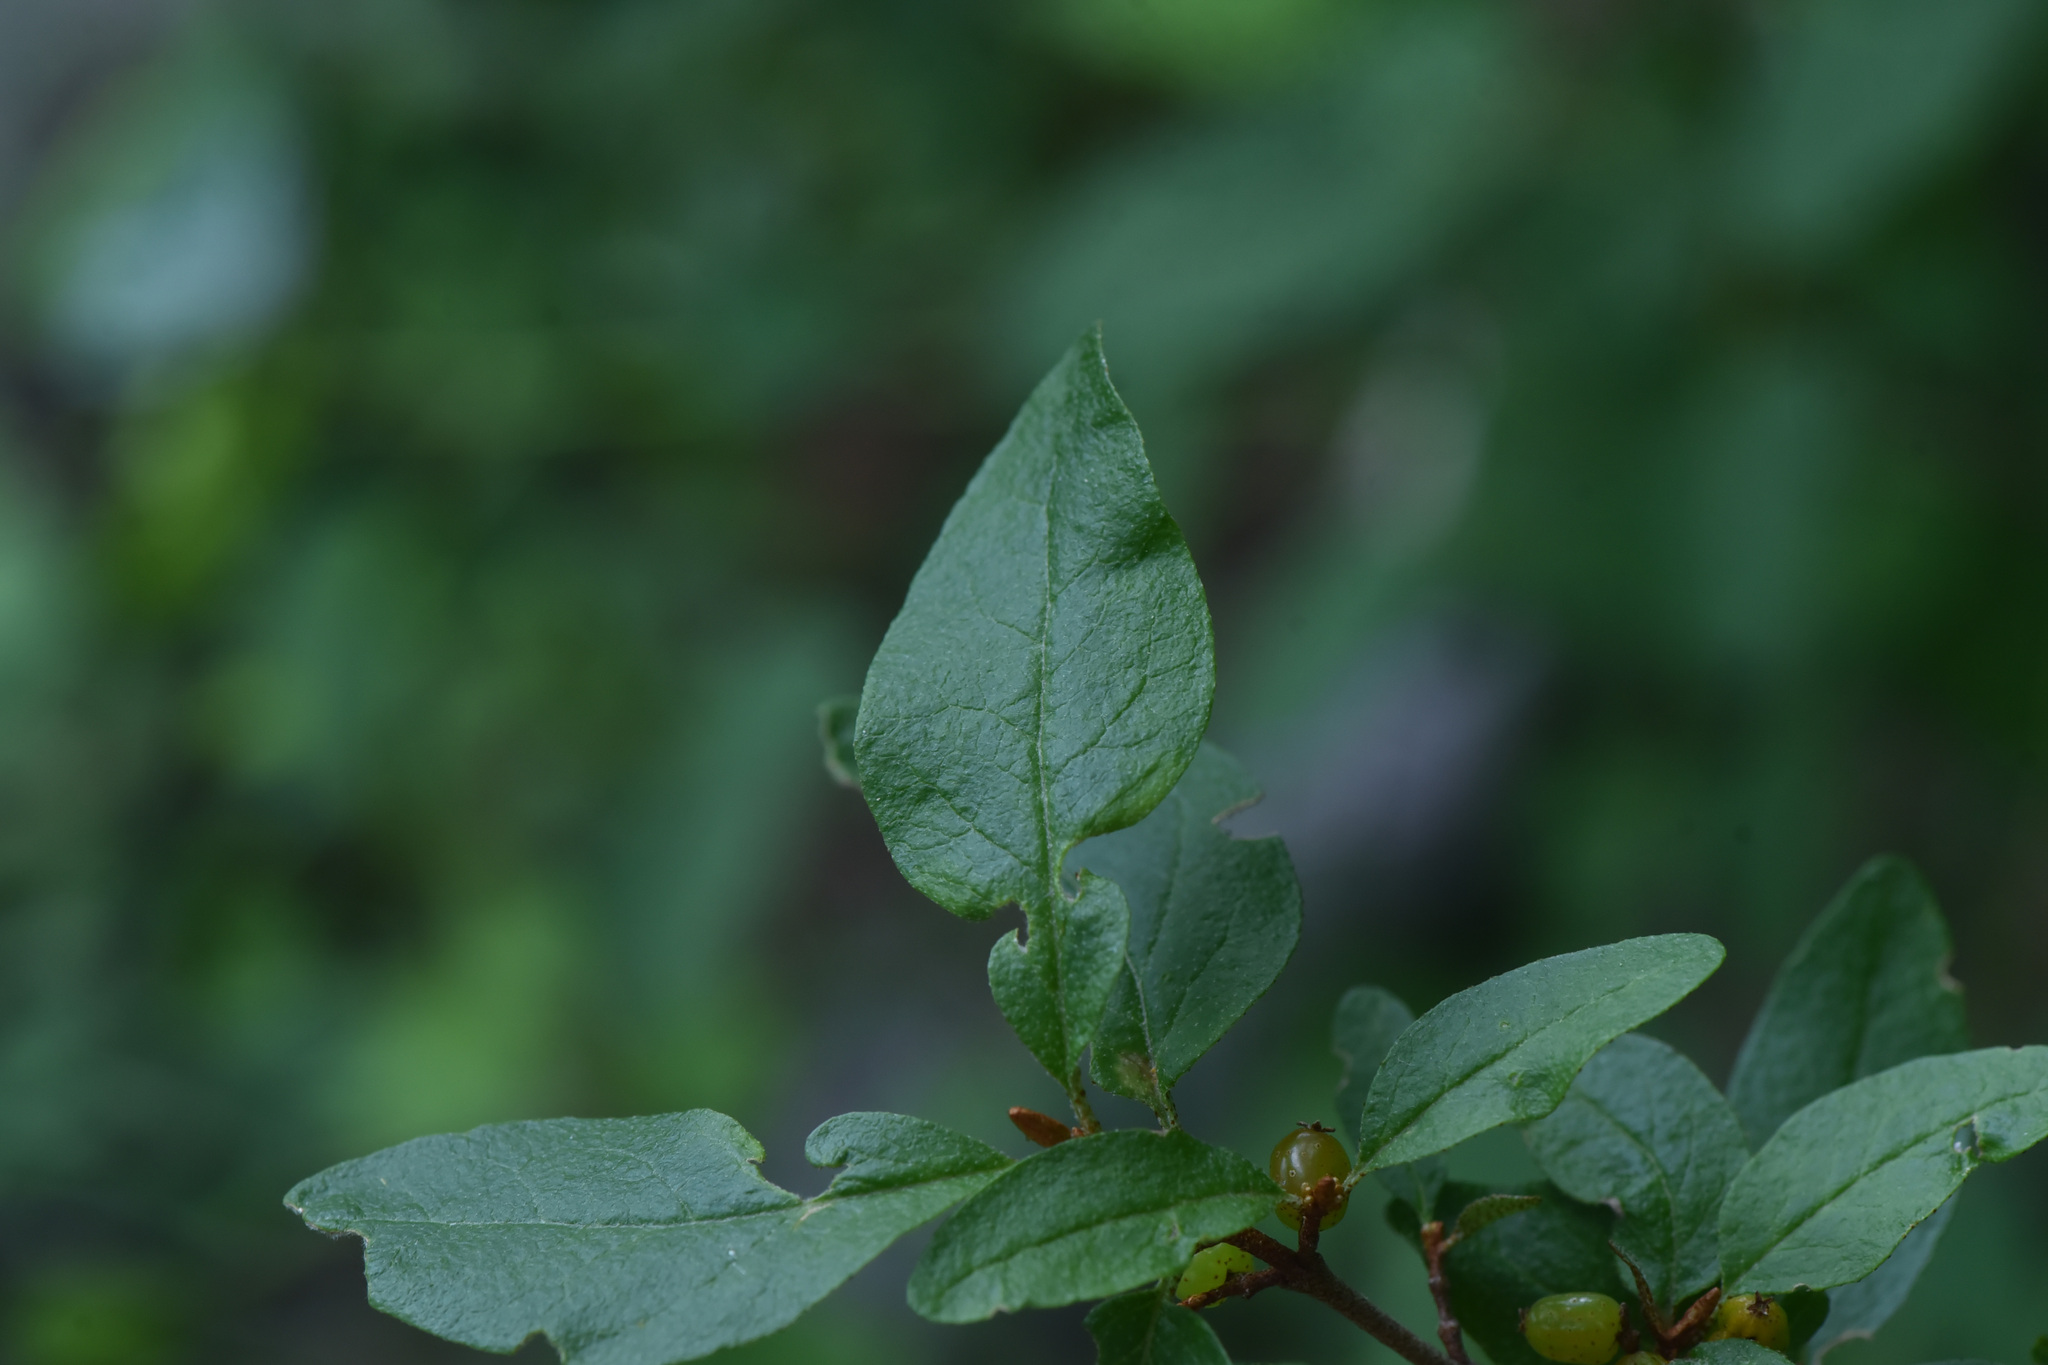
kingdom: Plantae
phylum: Tracheophyta
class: Magnoliopsida
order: Rosales
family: Elaeagnaceae
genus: Shepherdia
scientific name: Shepherdia canadensis
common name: Soapberry
